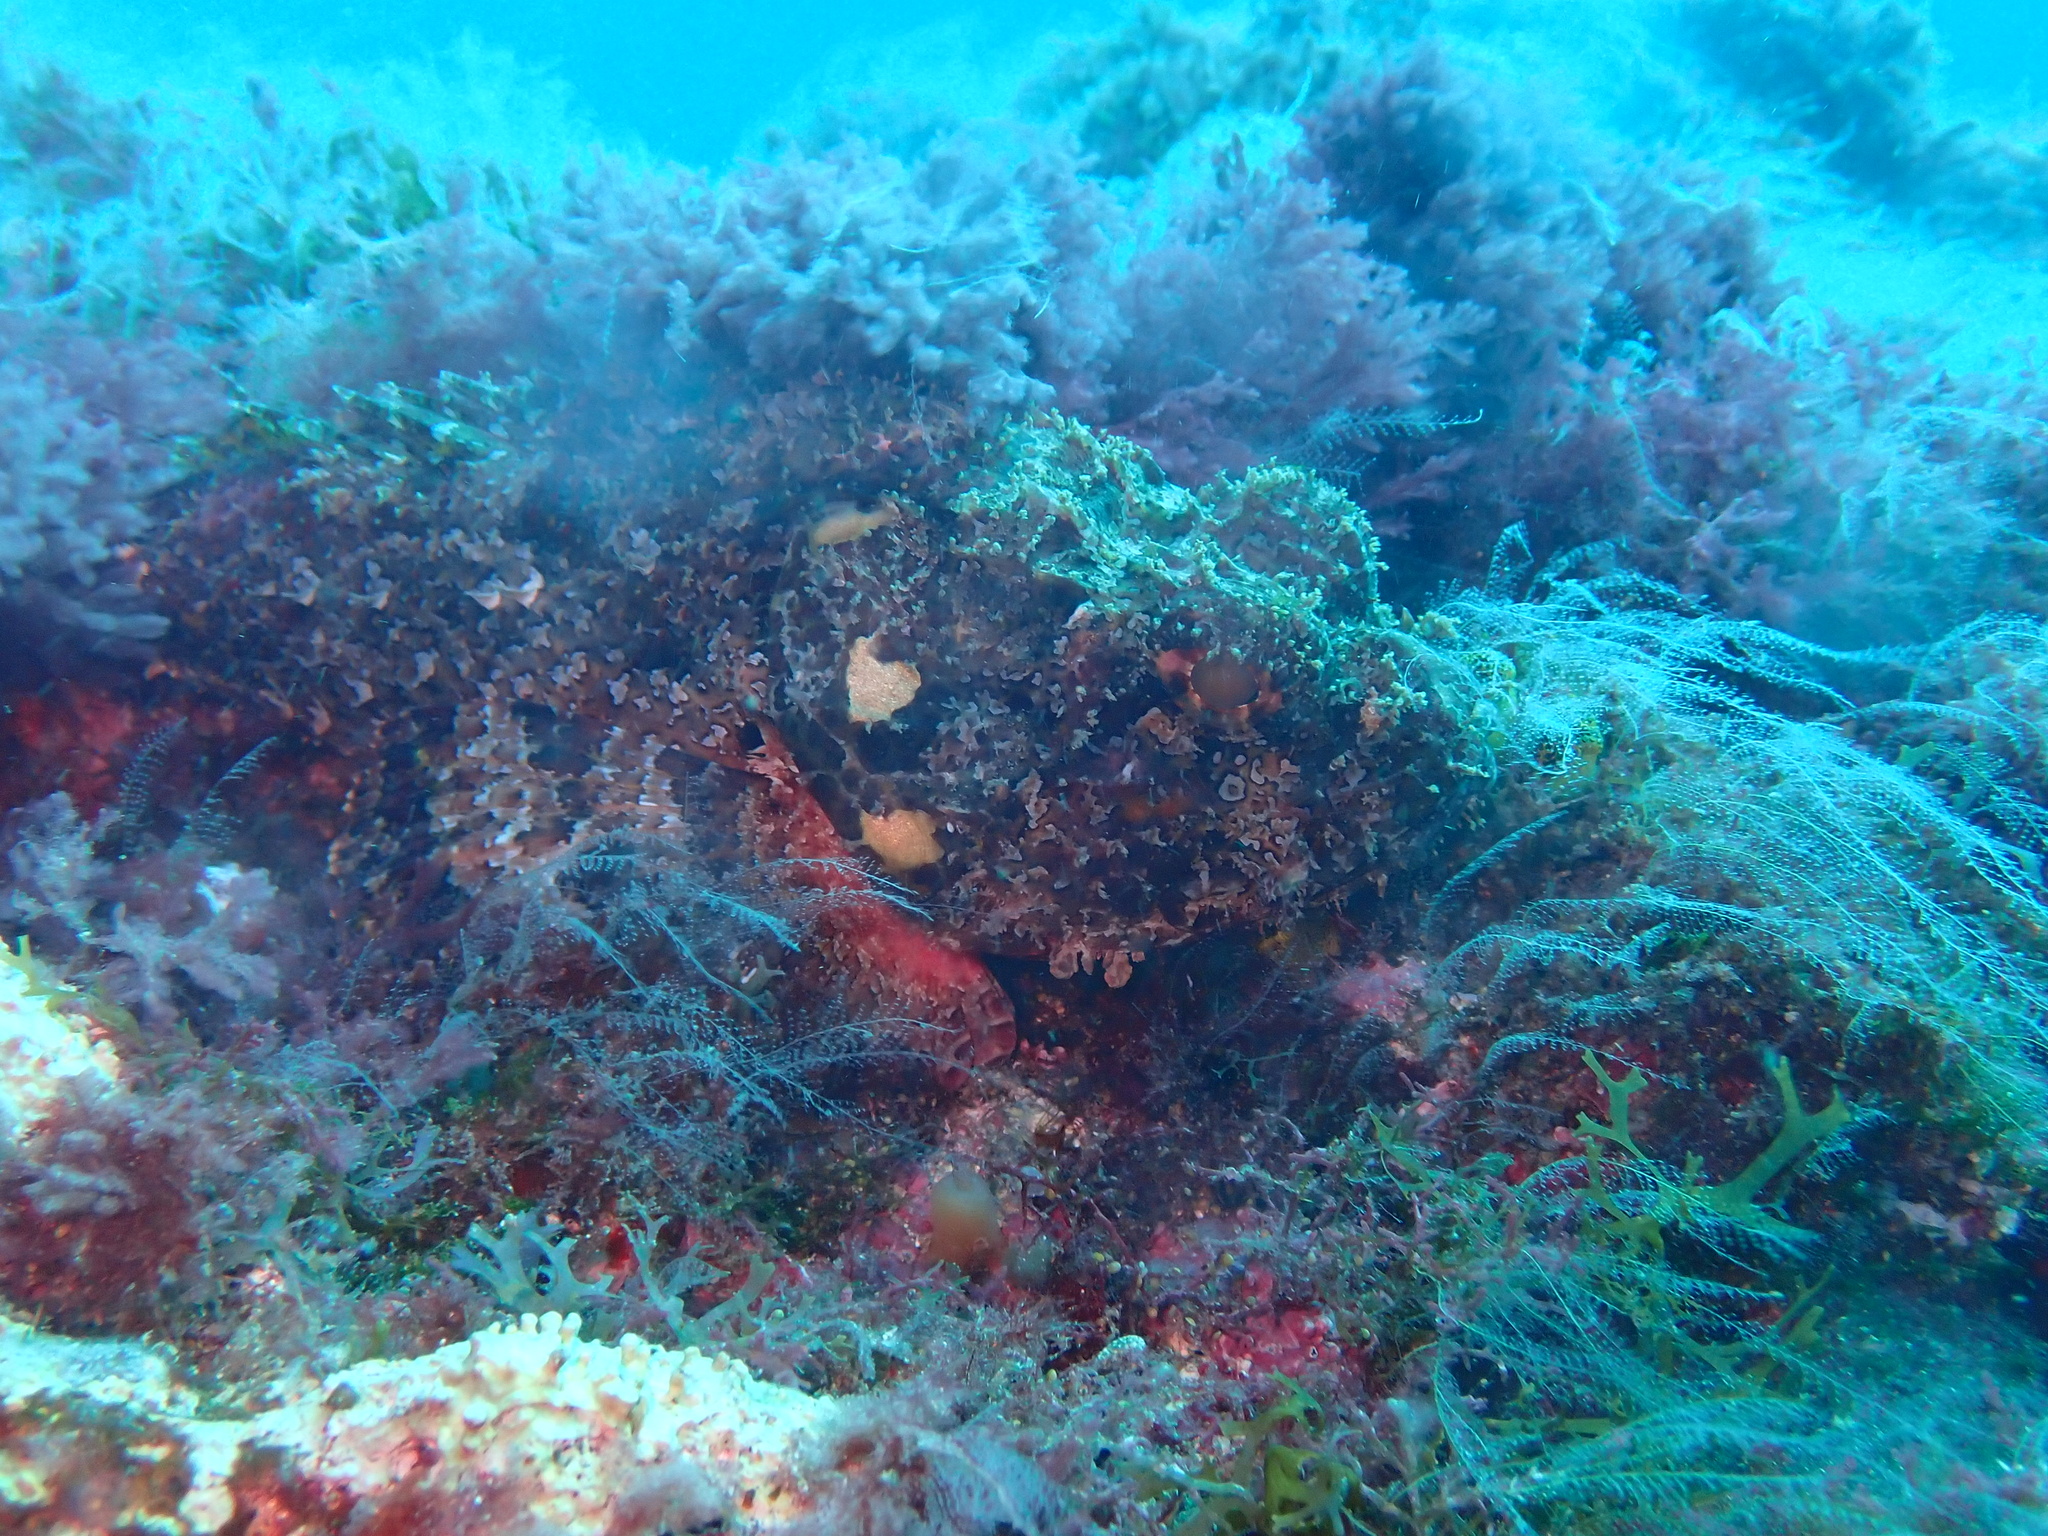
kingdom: Animalia
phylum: Chordata
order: Scorpaeniformes
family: Scorpaenidae
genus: Scorpaena
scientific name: Scorpaena laevis
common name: Senegalese rockfish
